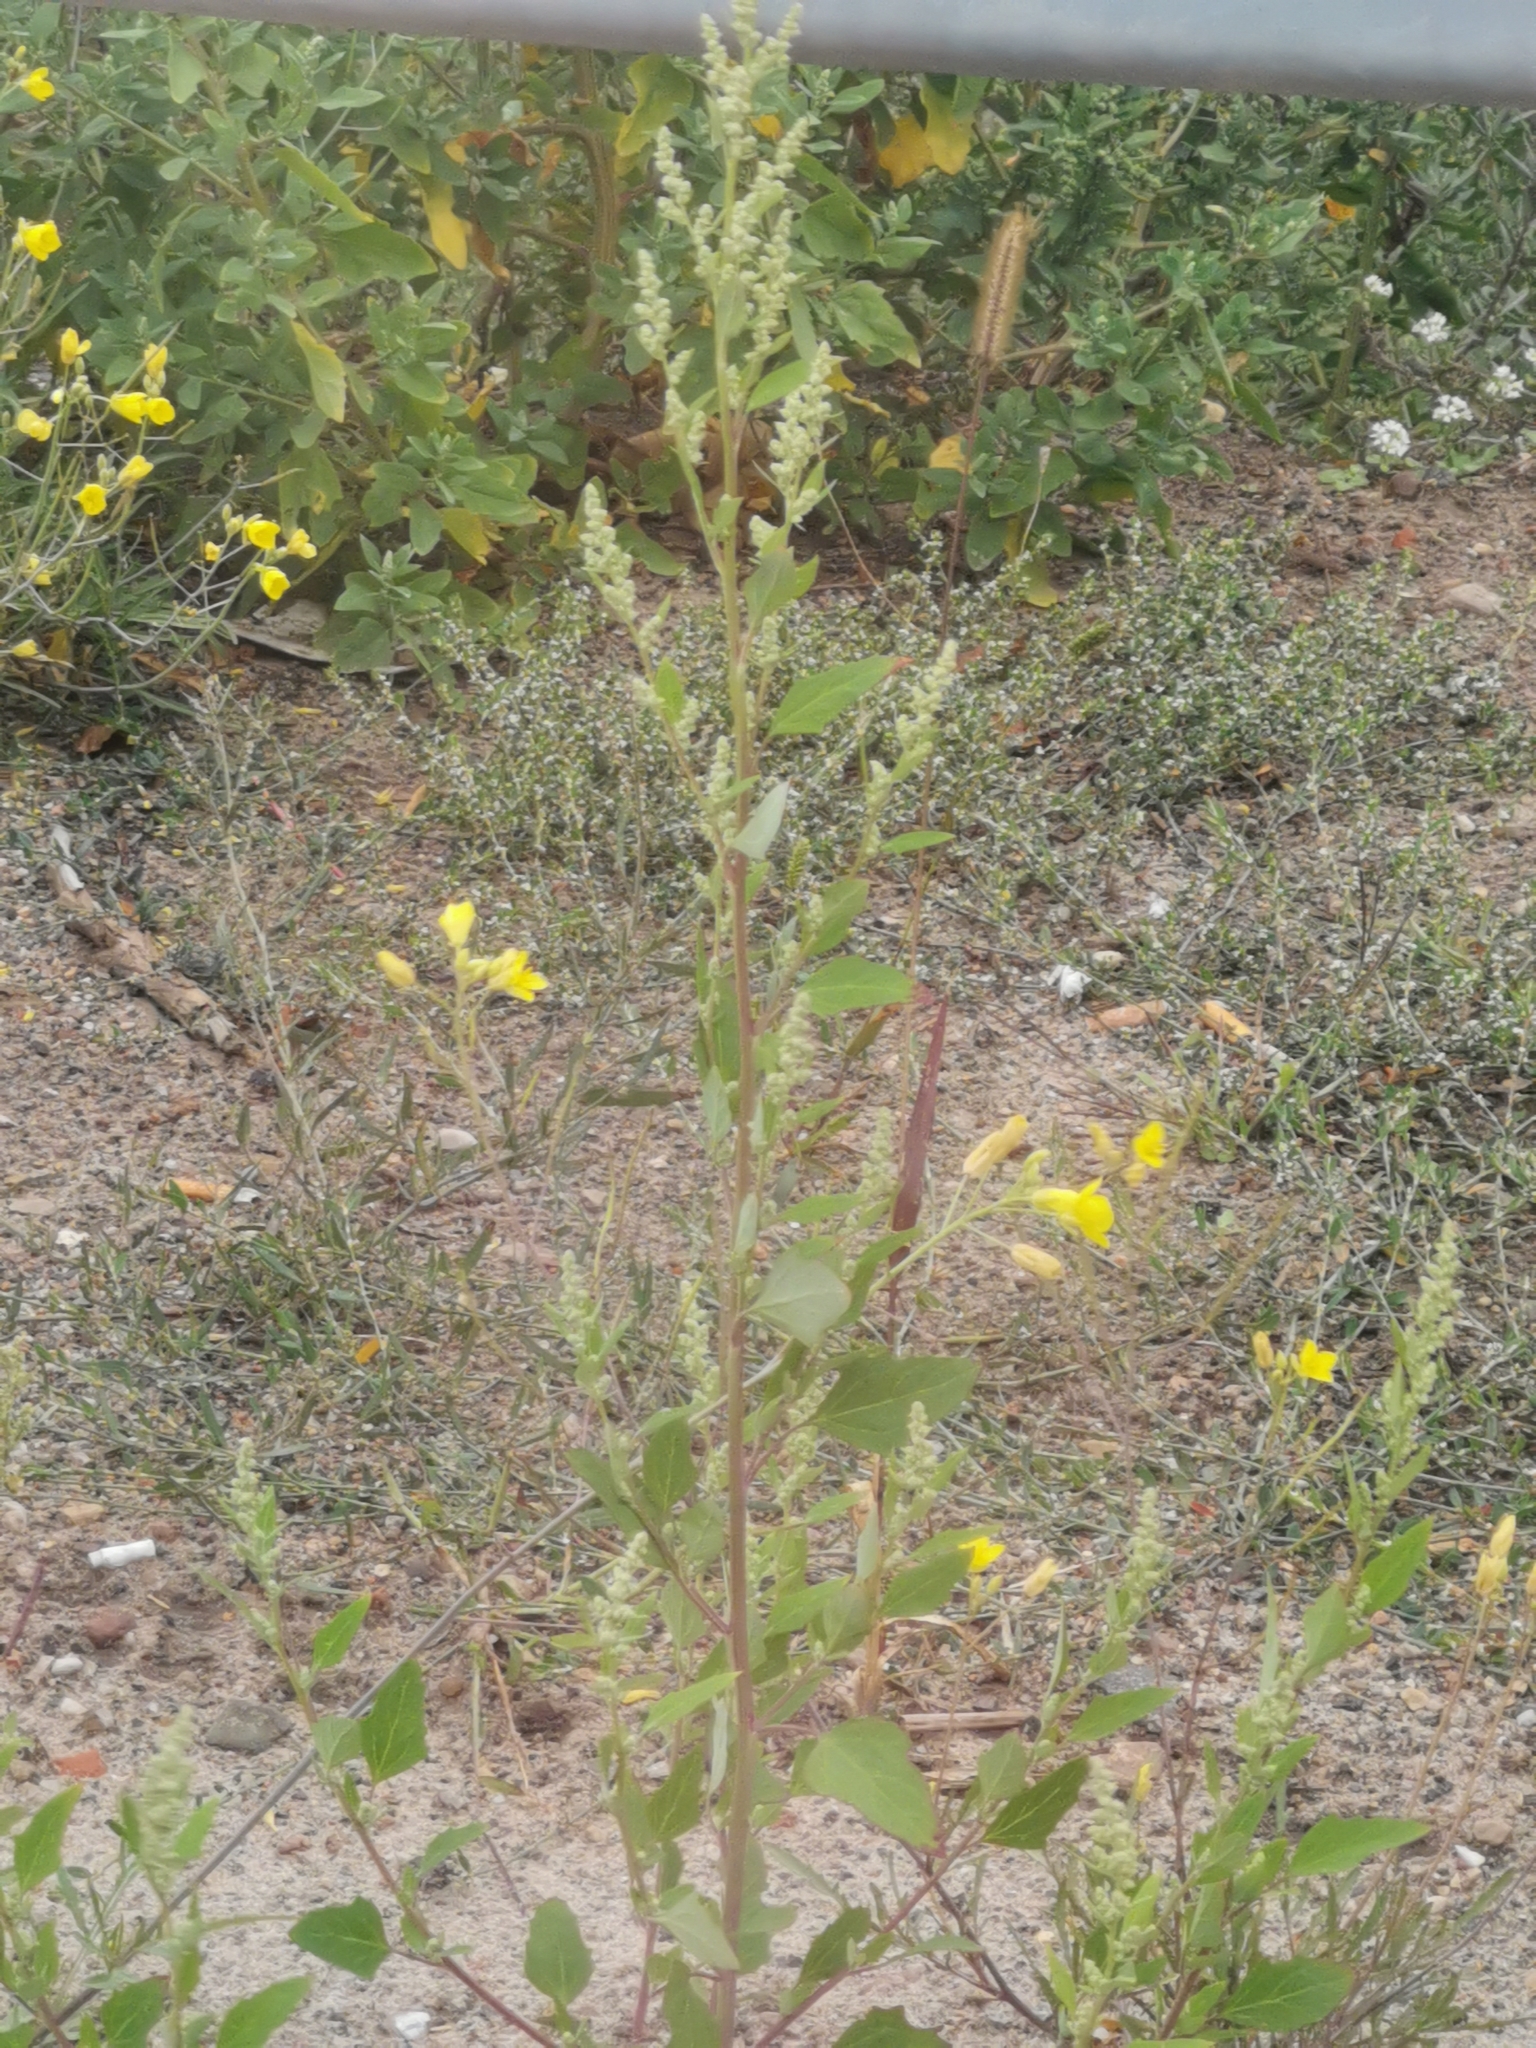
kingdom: Plantae
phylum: Tracheophyta
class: Magnoliopsida
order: Caryophyllales
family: Amaranthaceae
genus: Chenopodium
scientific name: Chenopodium album
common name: Fat-hen
